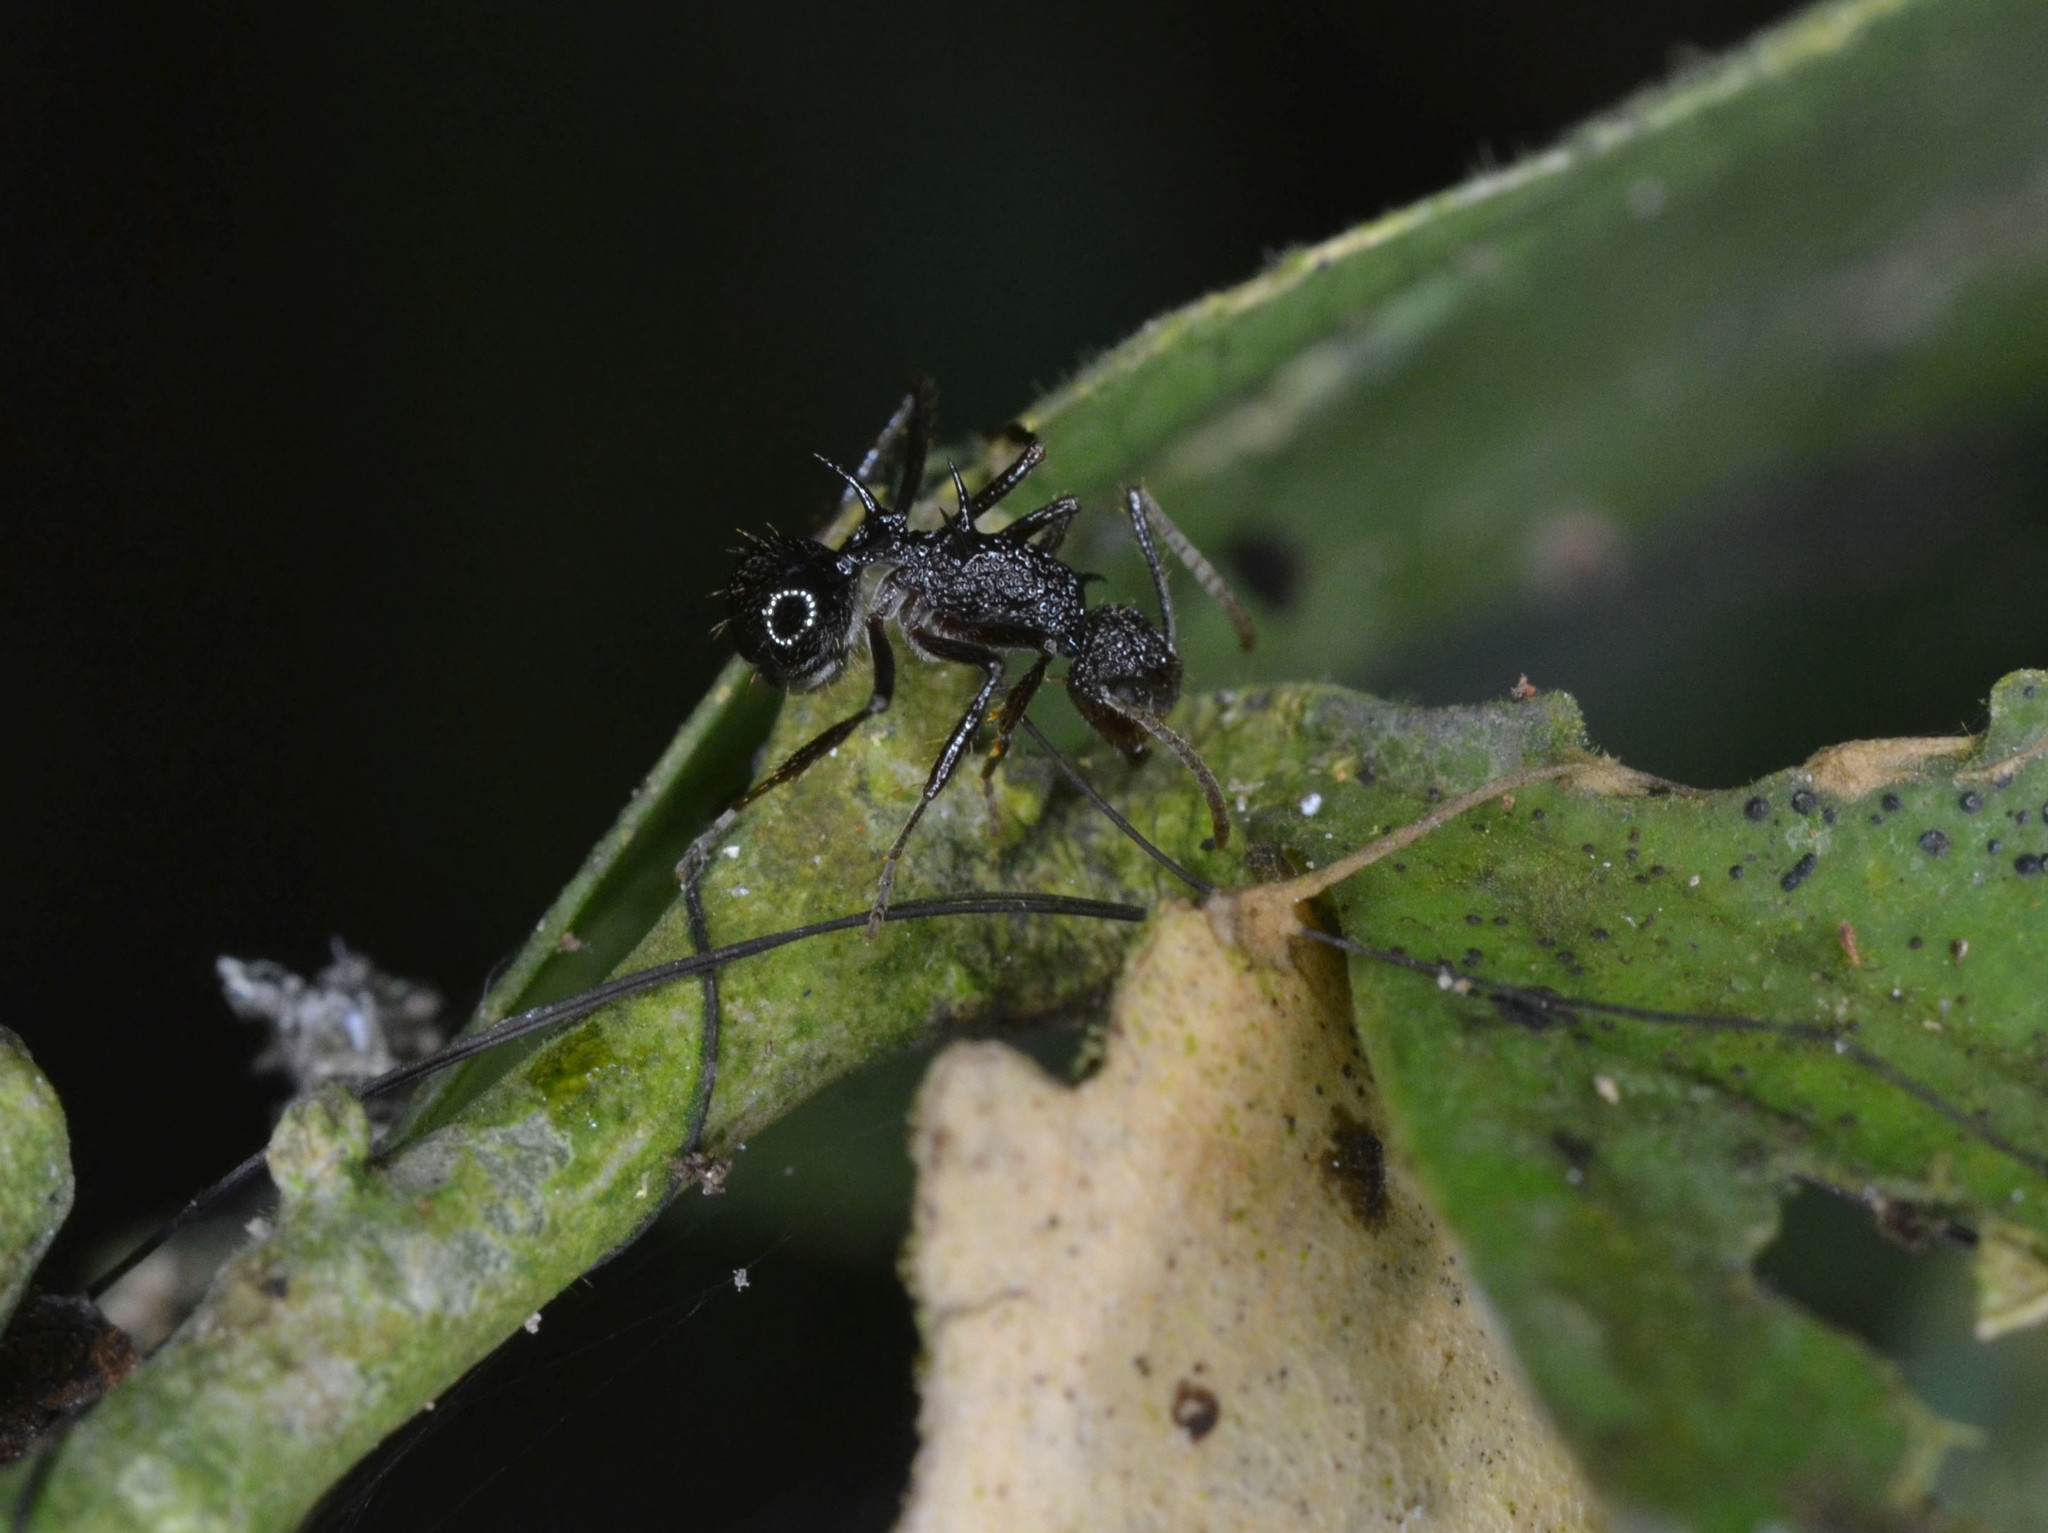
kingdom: Animalia
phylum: Arthropoda
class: Insecta
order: Hymenoptera
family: Formicidae
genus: Polyrhachis
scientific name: Polyrhachis rufipes
